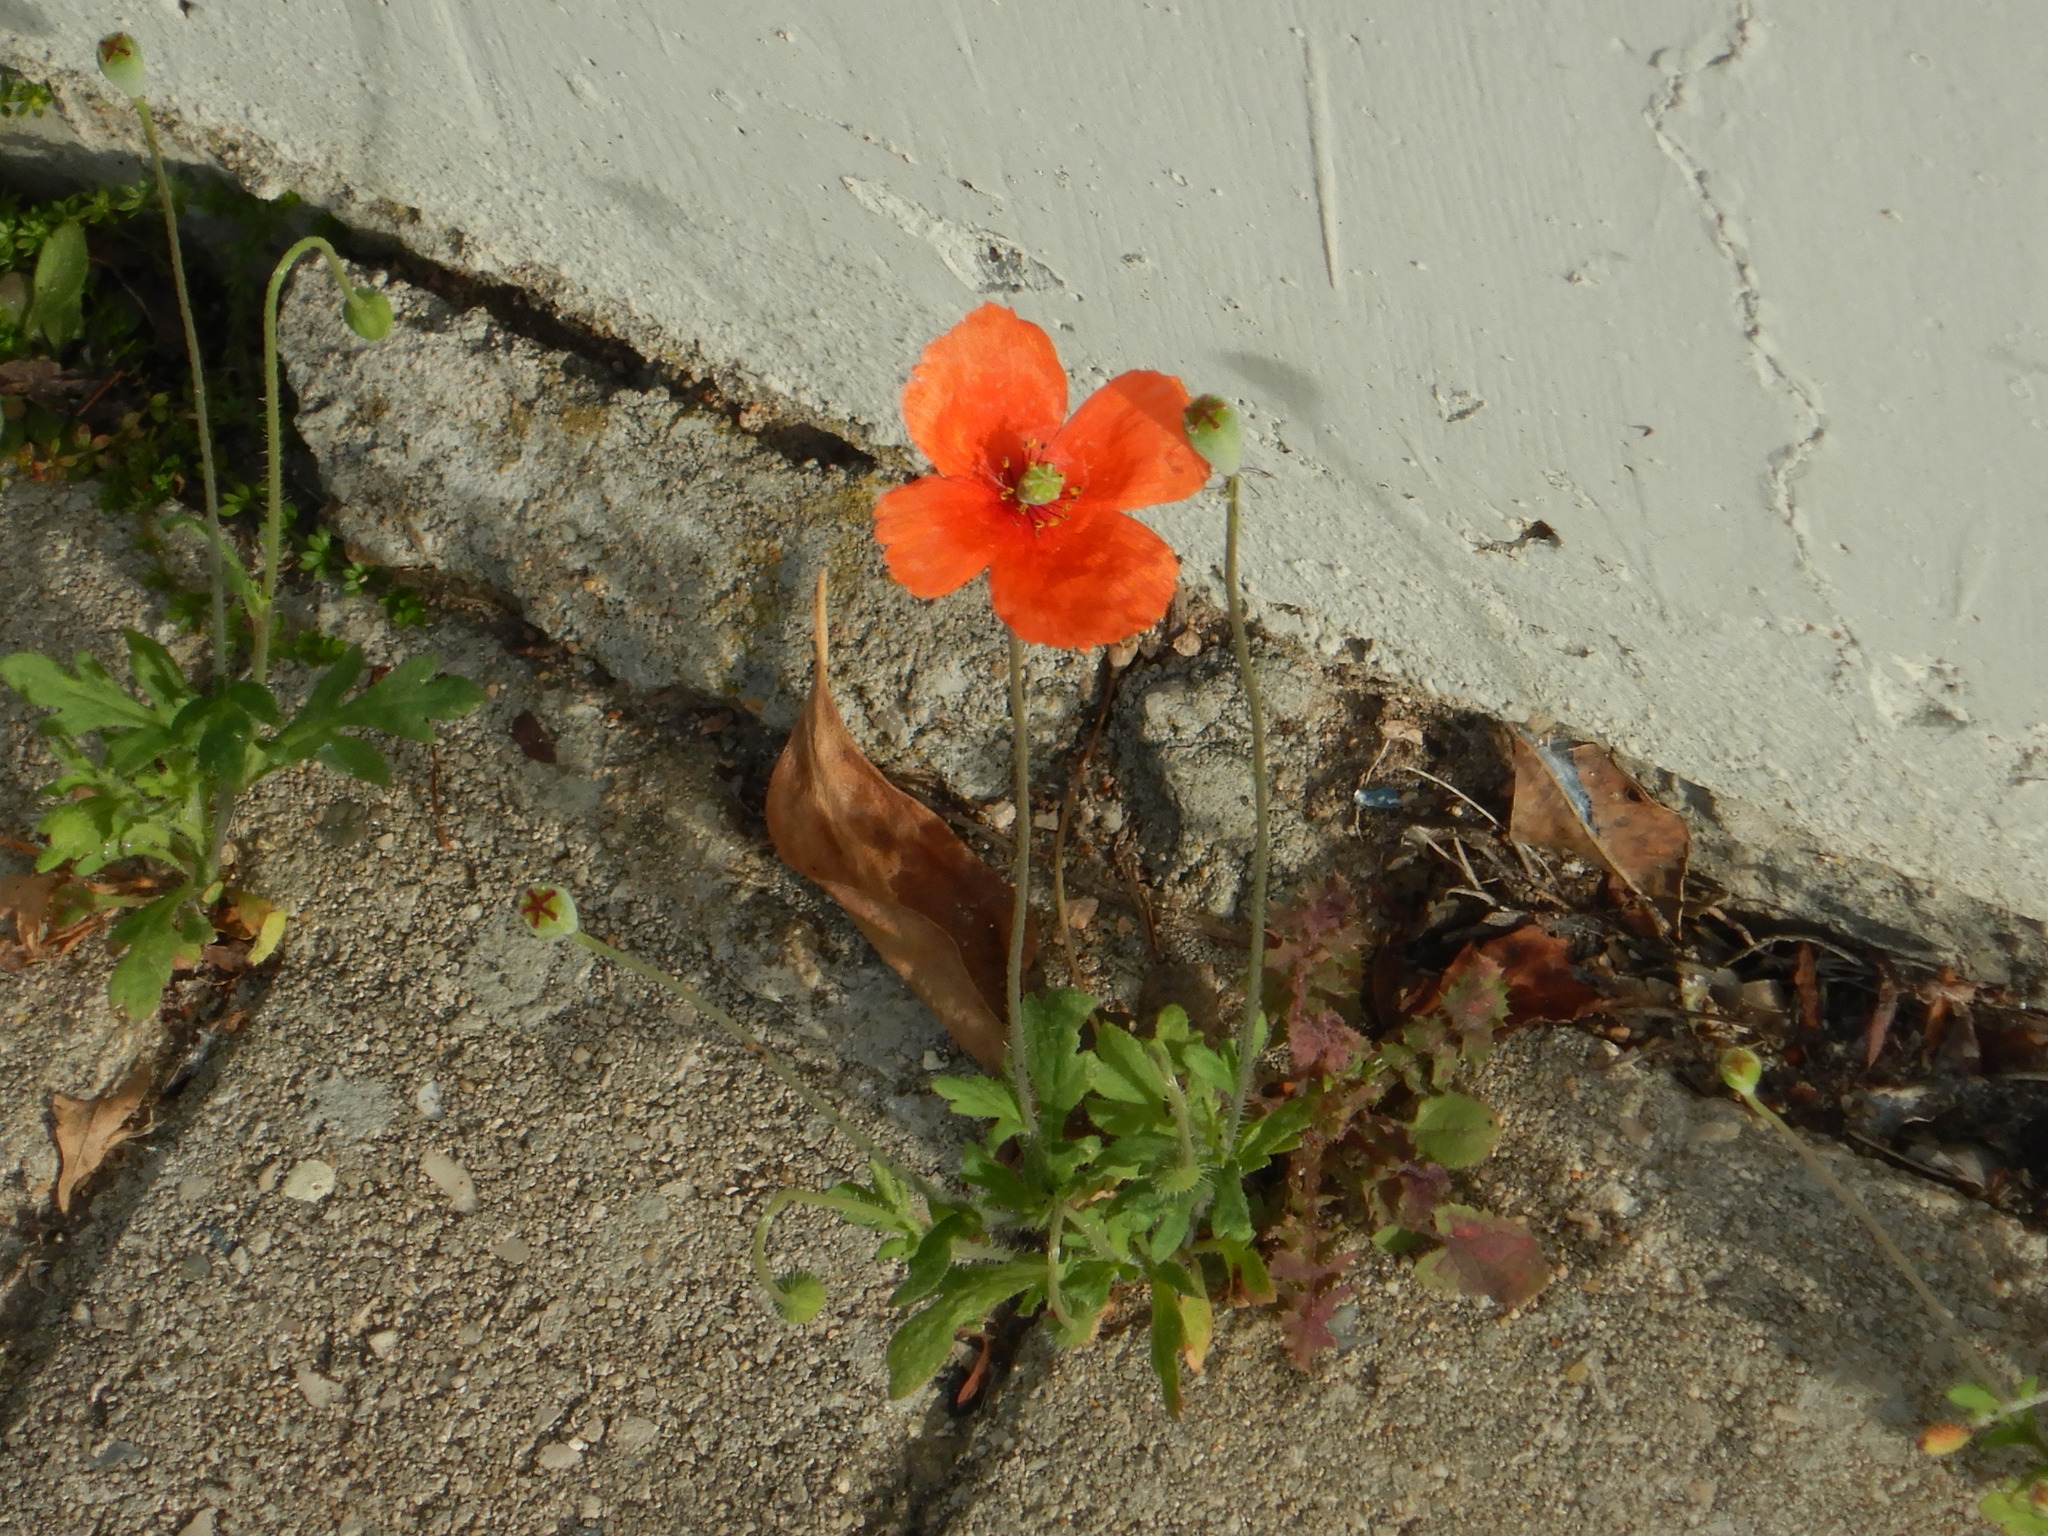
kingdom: Plantae
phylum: Tracheophyta
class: Magnoliopsida
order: Ranunculales
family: Papaveraceae
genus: Papaver
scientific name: Papaver dubium
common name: Long-headed poppy
